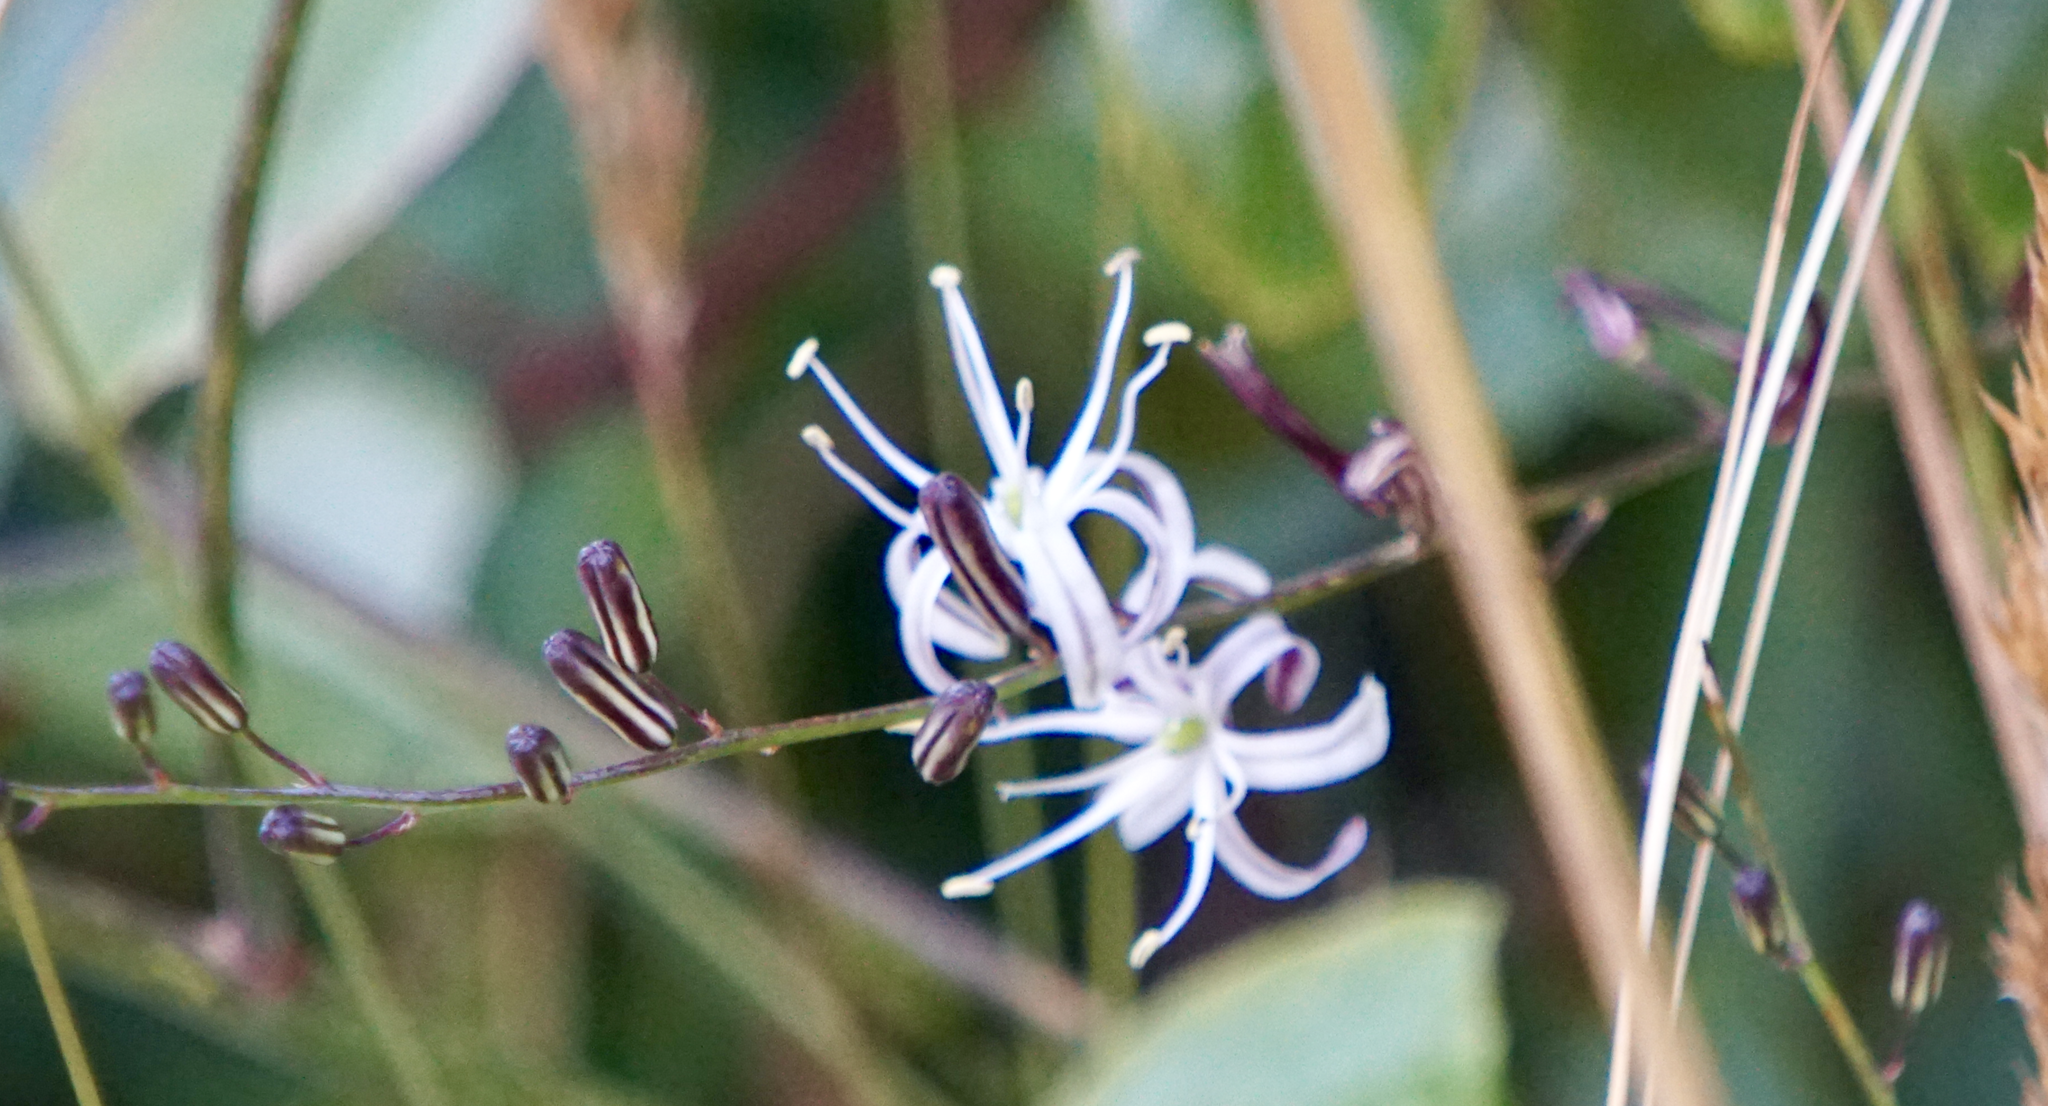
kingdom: Plantae
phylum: Tracheophyta
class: Liliopsida
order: Asparagales
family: Asparagaceae
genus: Chlorogalum
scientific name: Chlorogalum pomeridianum
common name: Amole
